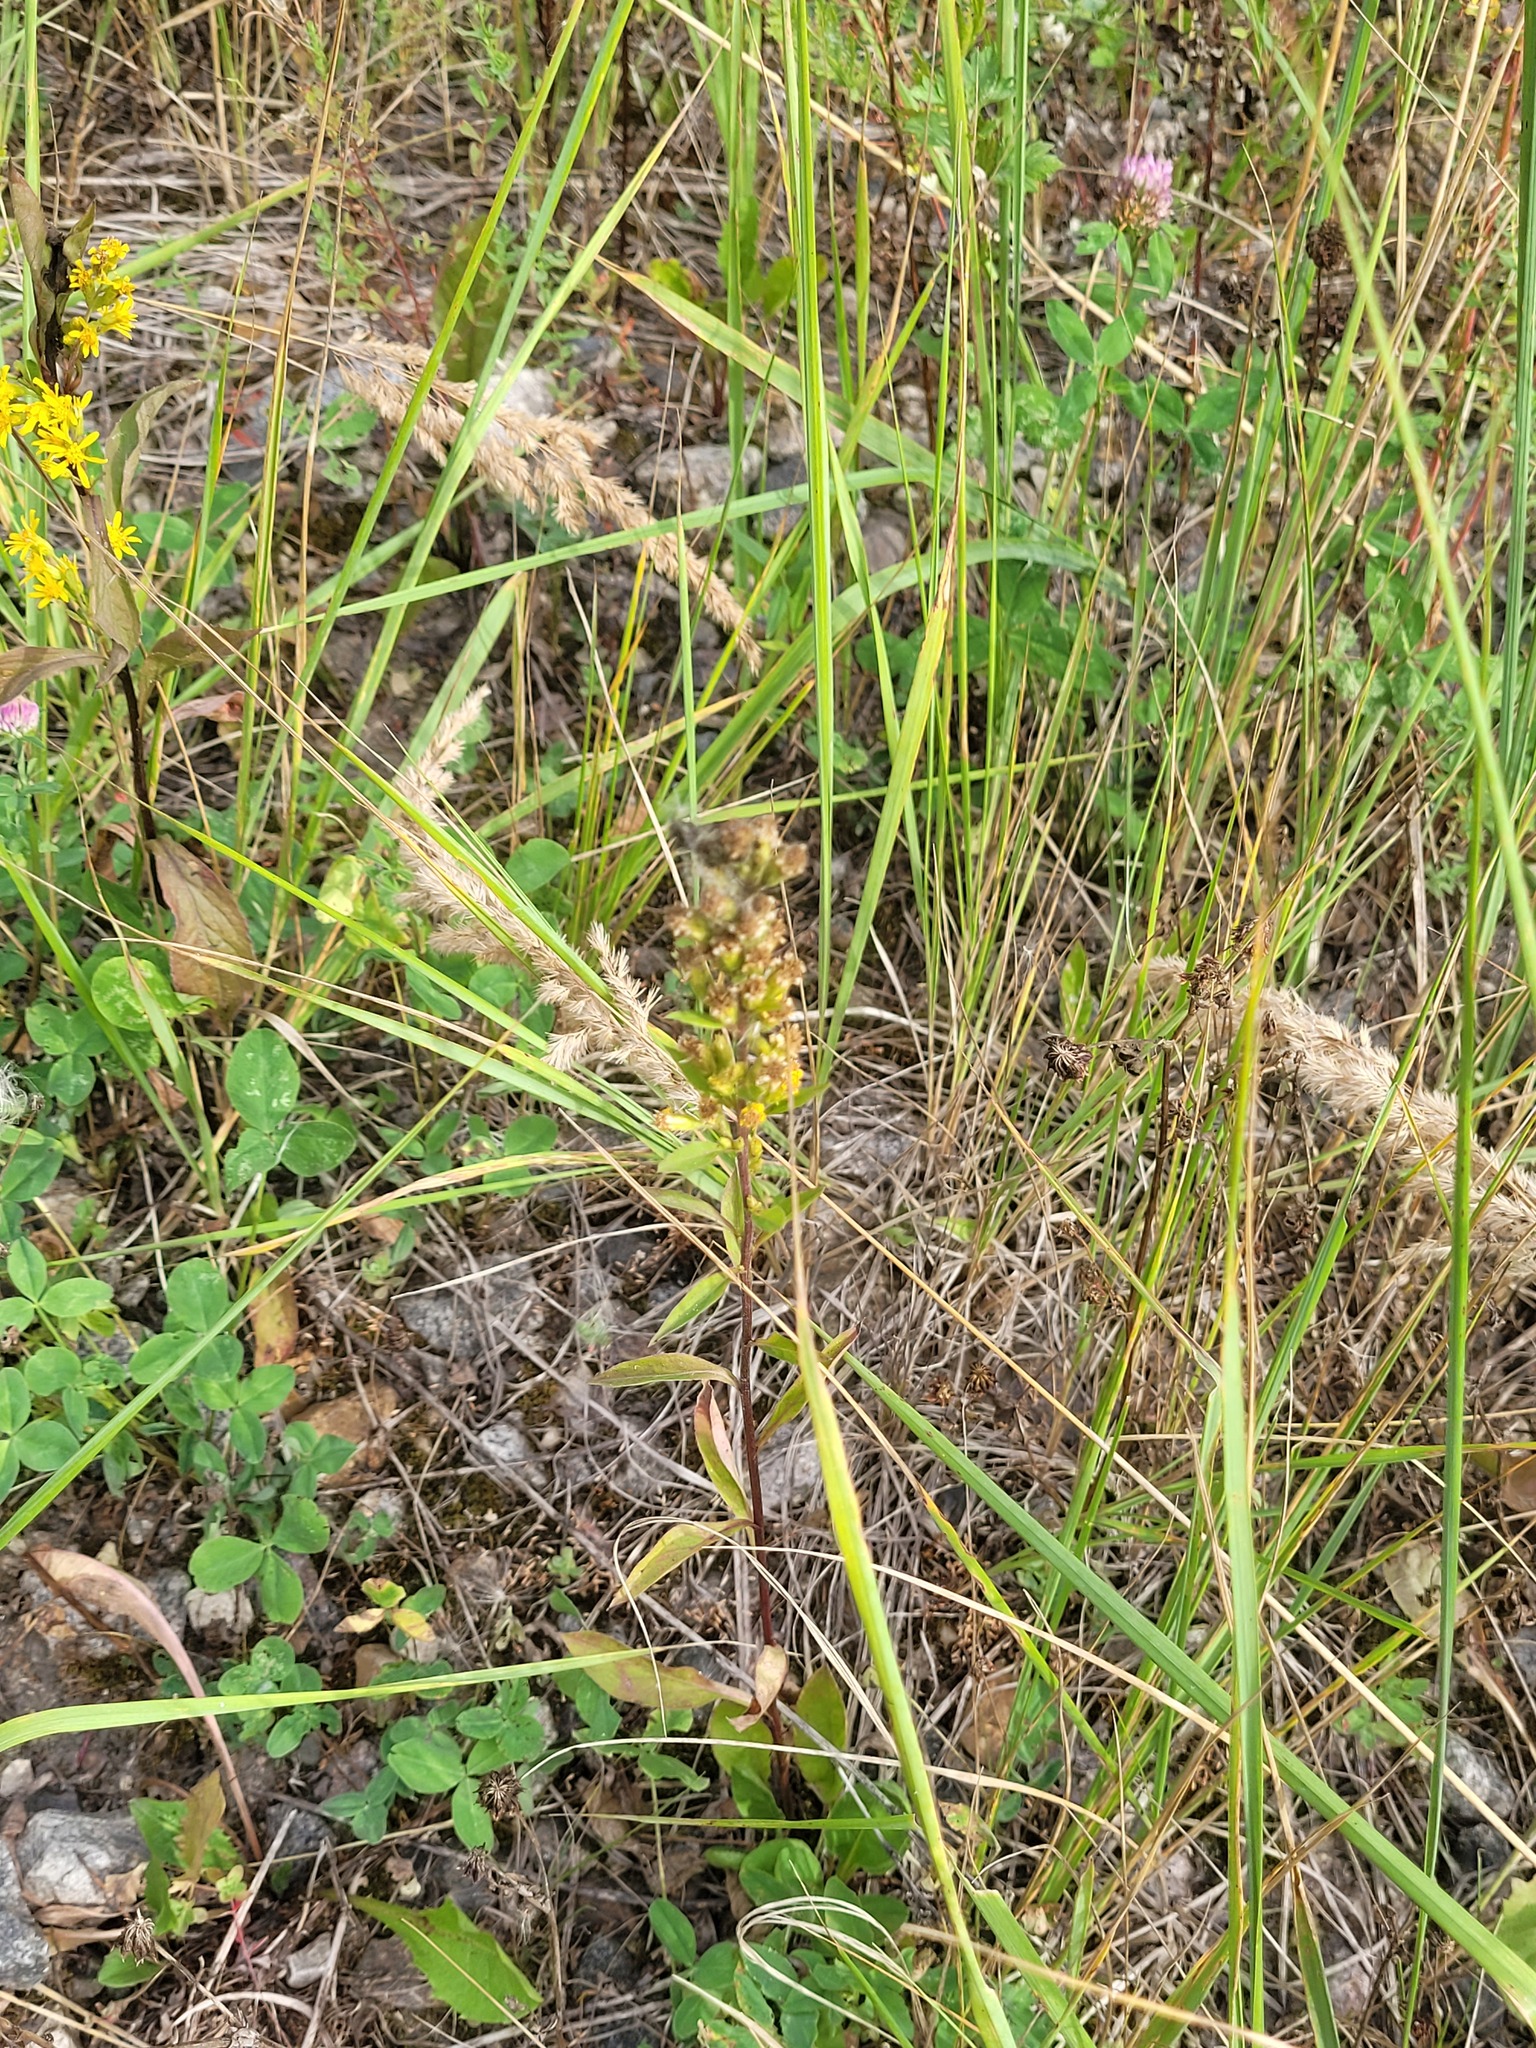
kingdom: Plantae
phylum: Tracheophyta
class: Magnoliopsida
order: Asterales
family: Asteraceae
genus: Solidago
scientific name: Solidago virgaurea
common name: Goldenrod
